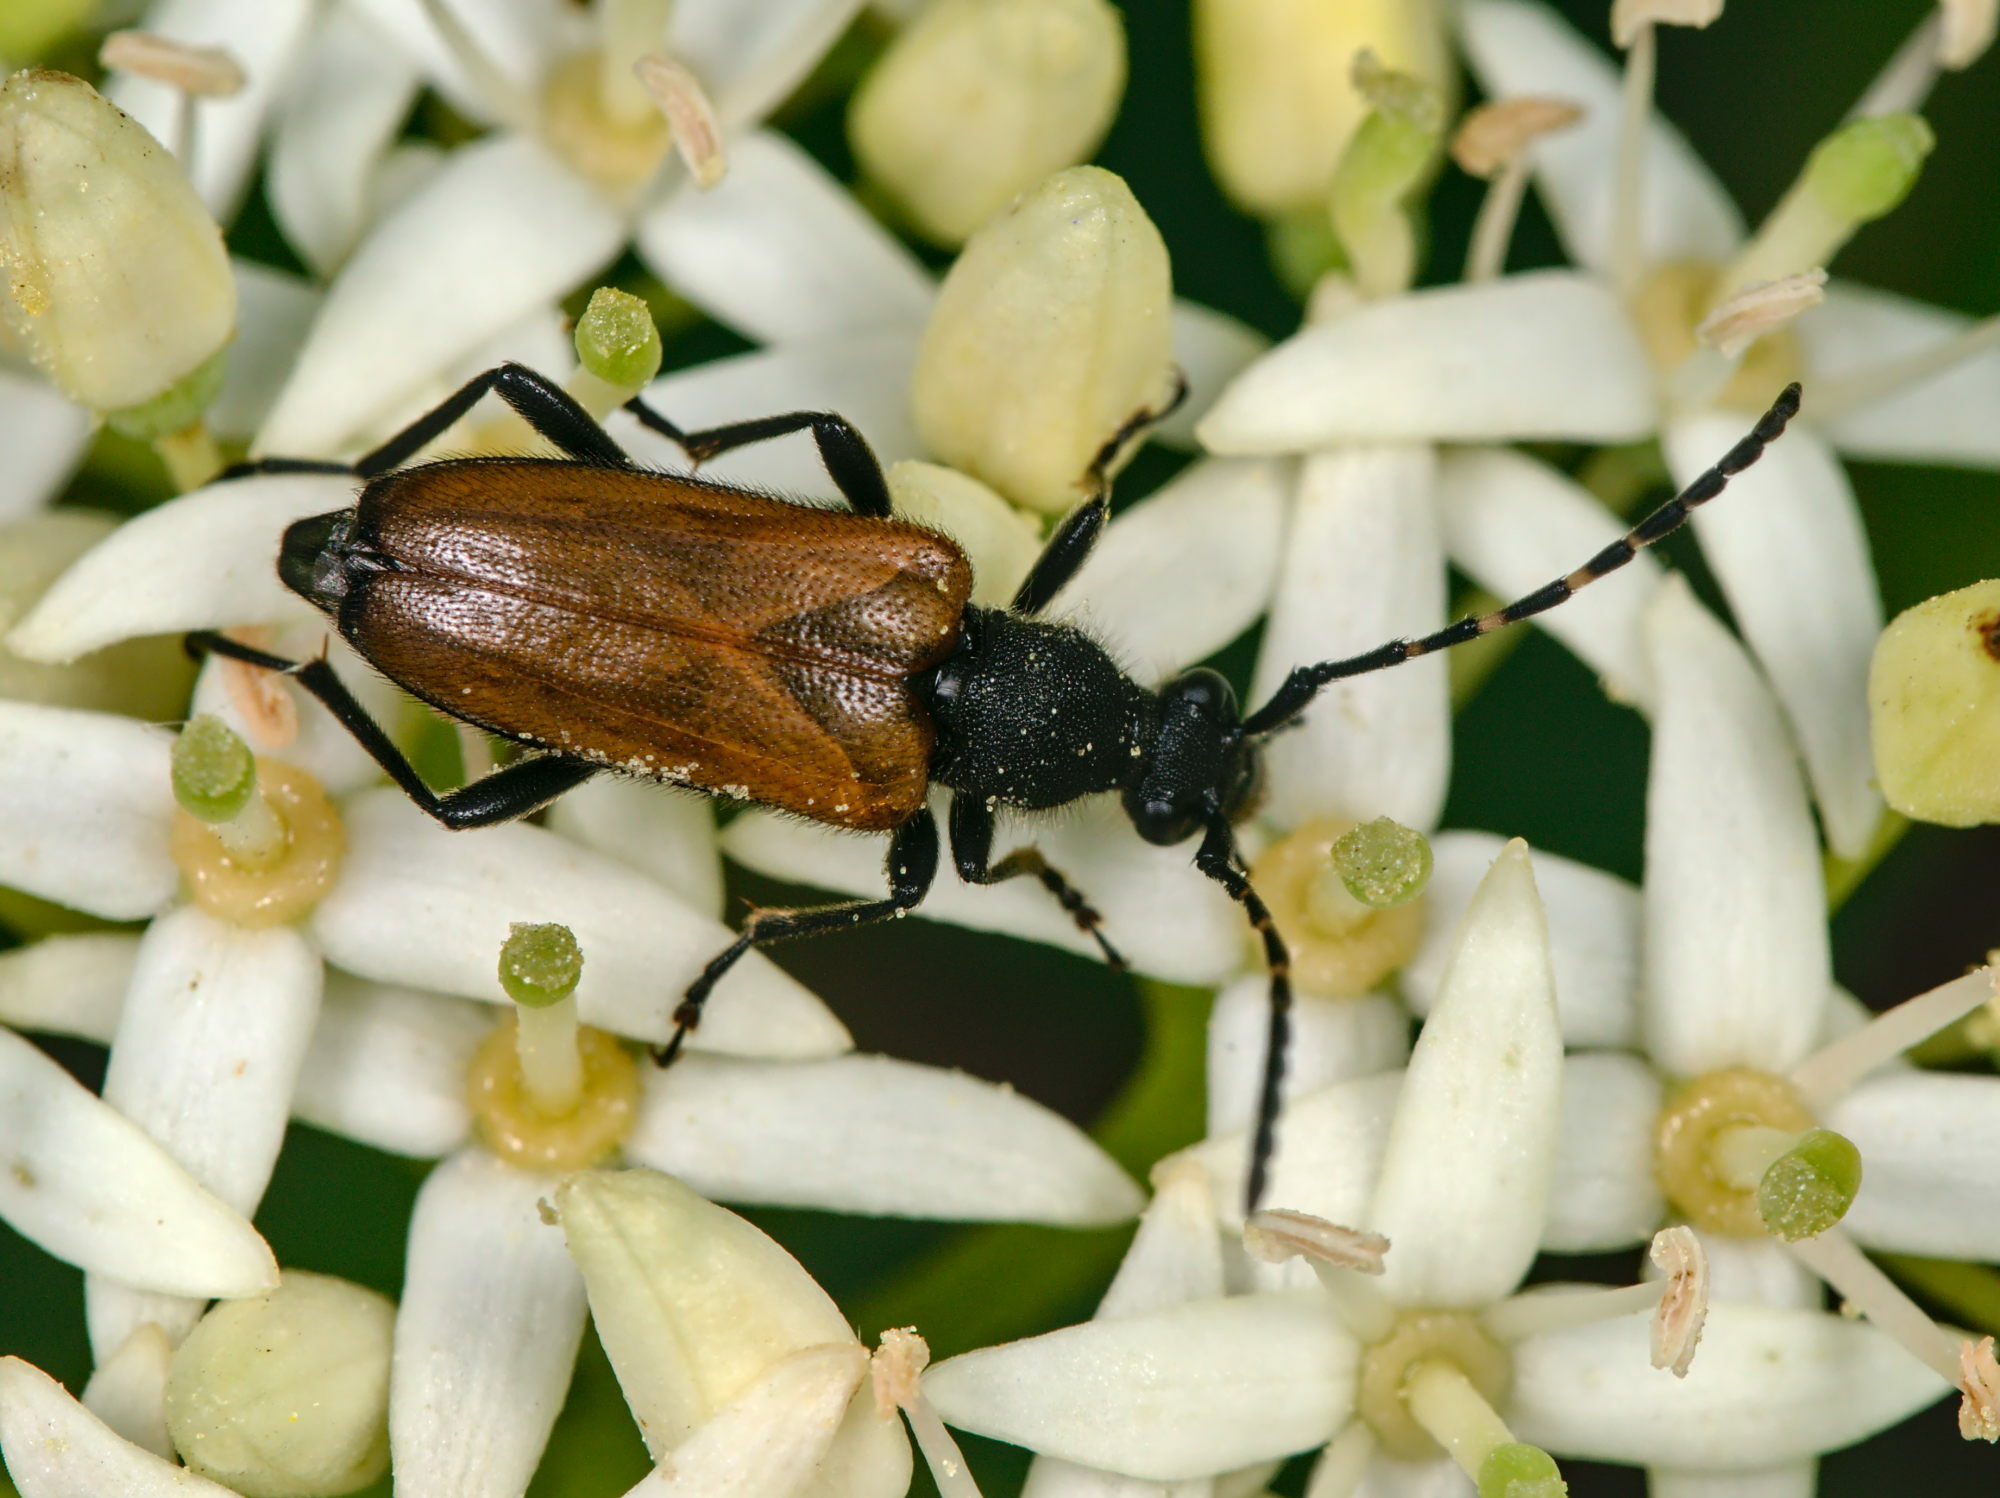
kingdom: Animalia
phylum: Arthropoda
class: Insecta
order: Coleoptera
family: Cerambycidae
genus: Paracorymbia
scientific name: Paracorymbia maculicornis
